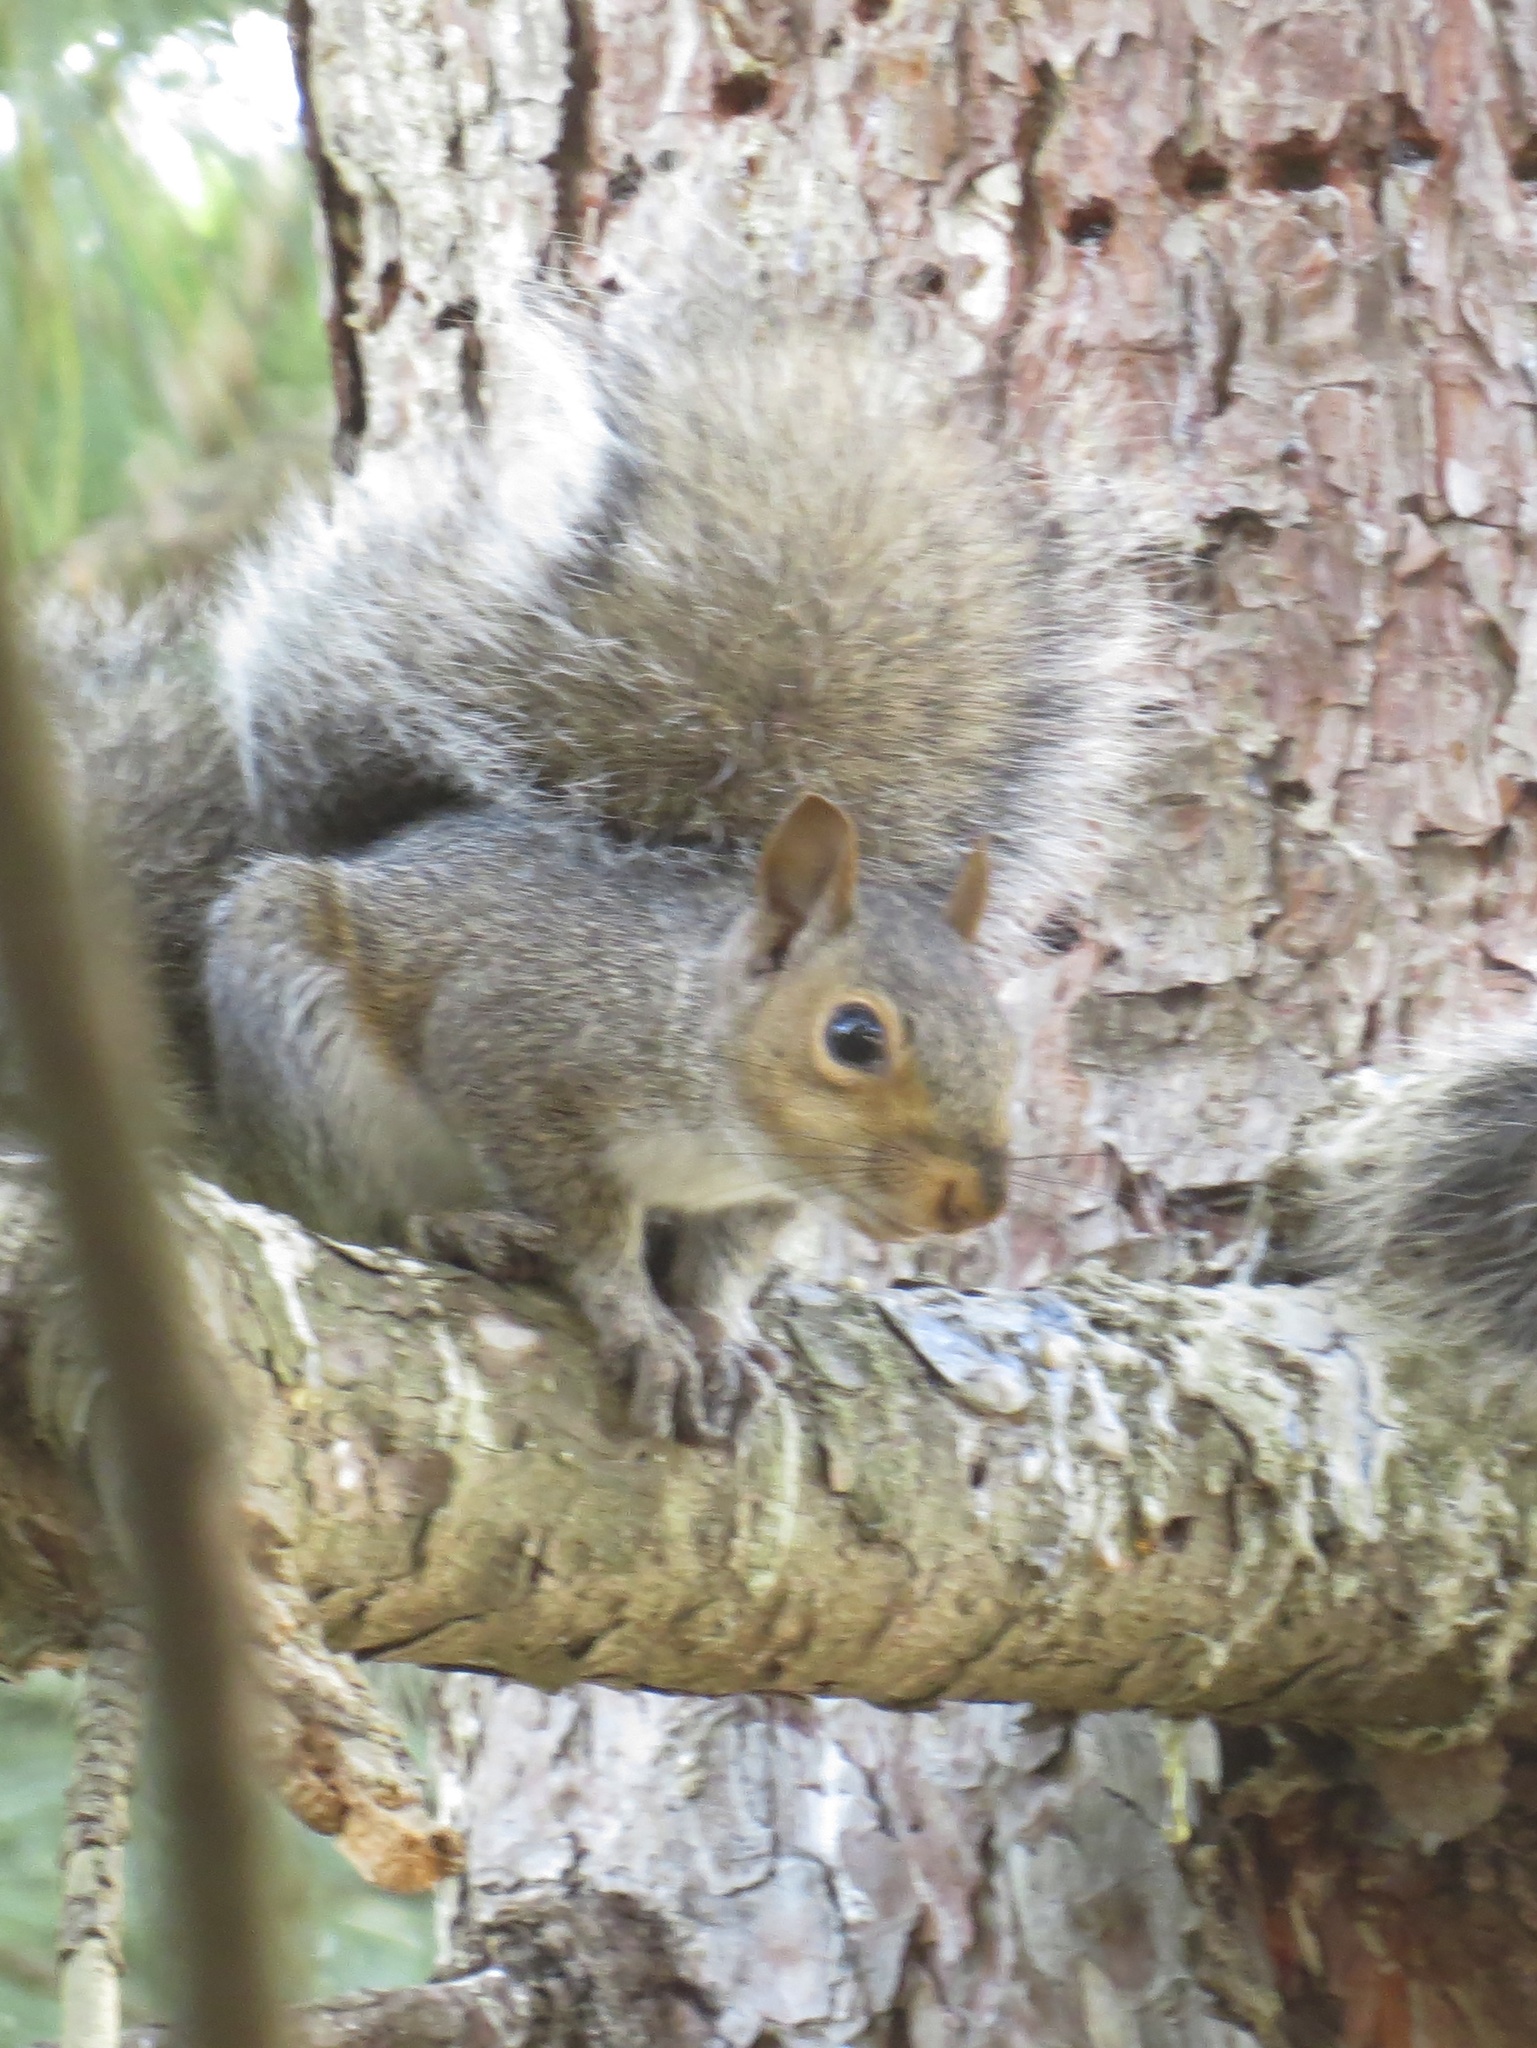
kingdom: Animalia
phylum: Chordata
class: Mammalia
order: Rodentia
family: Sciuridae
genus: Sciurus
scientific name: Sciurus carolinensis
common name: Eastern gray squirrel
